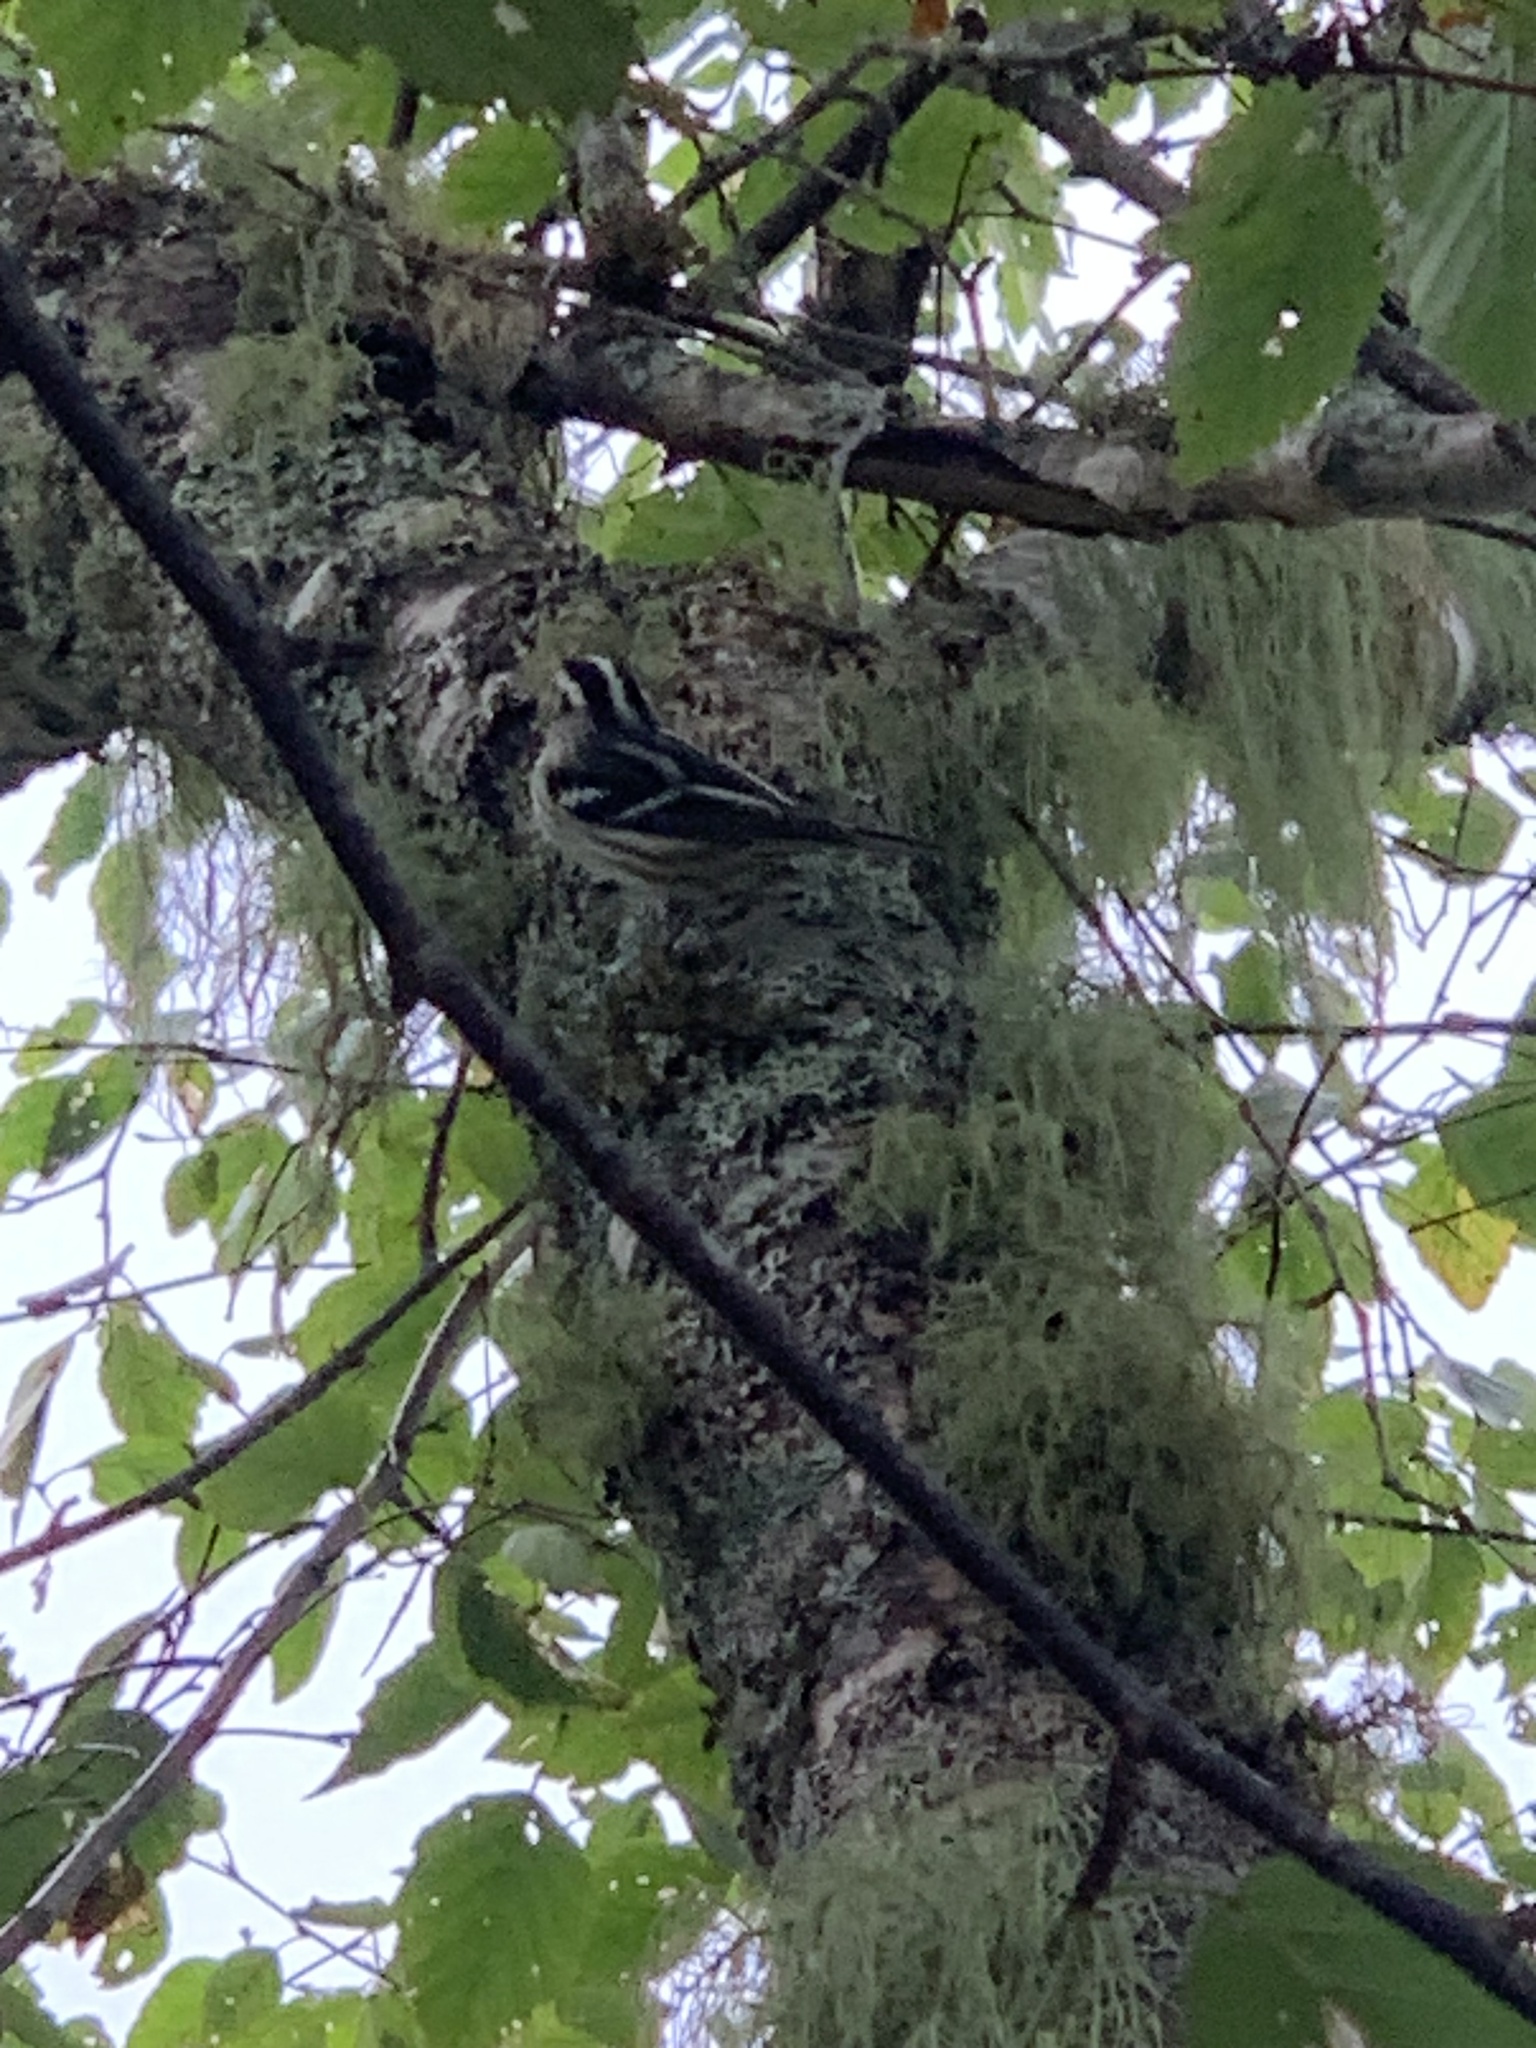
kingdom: Animalia
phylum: Chordata
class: Aves
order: Passeriformes
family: Parulidae
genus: Mniotilta
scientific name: Mniotilta varia
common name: Black-and-white warbler
